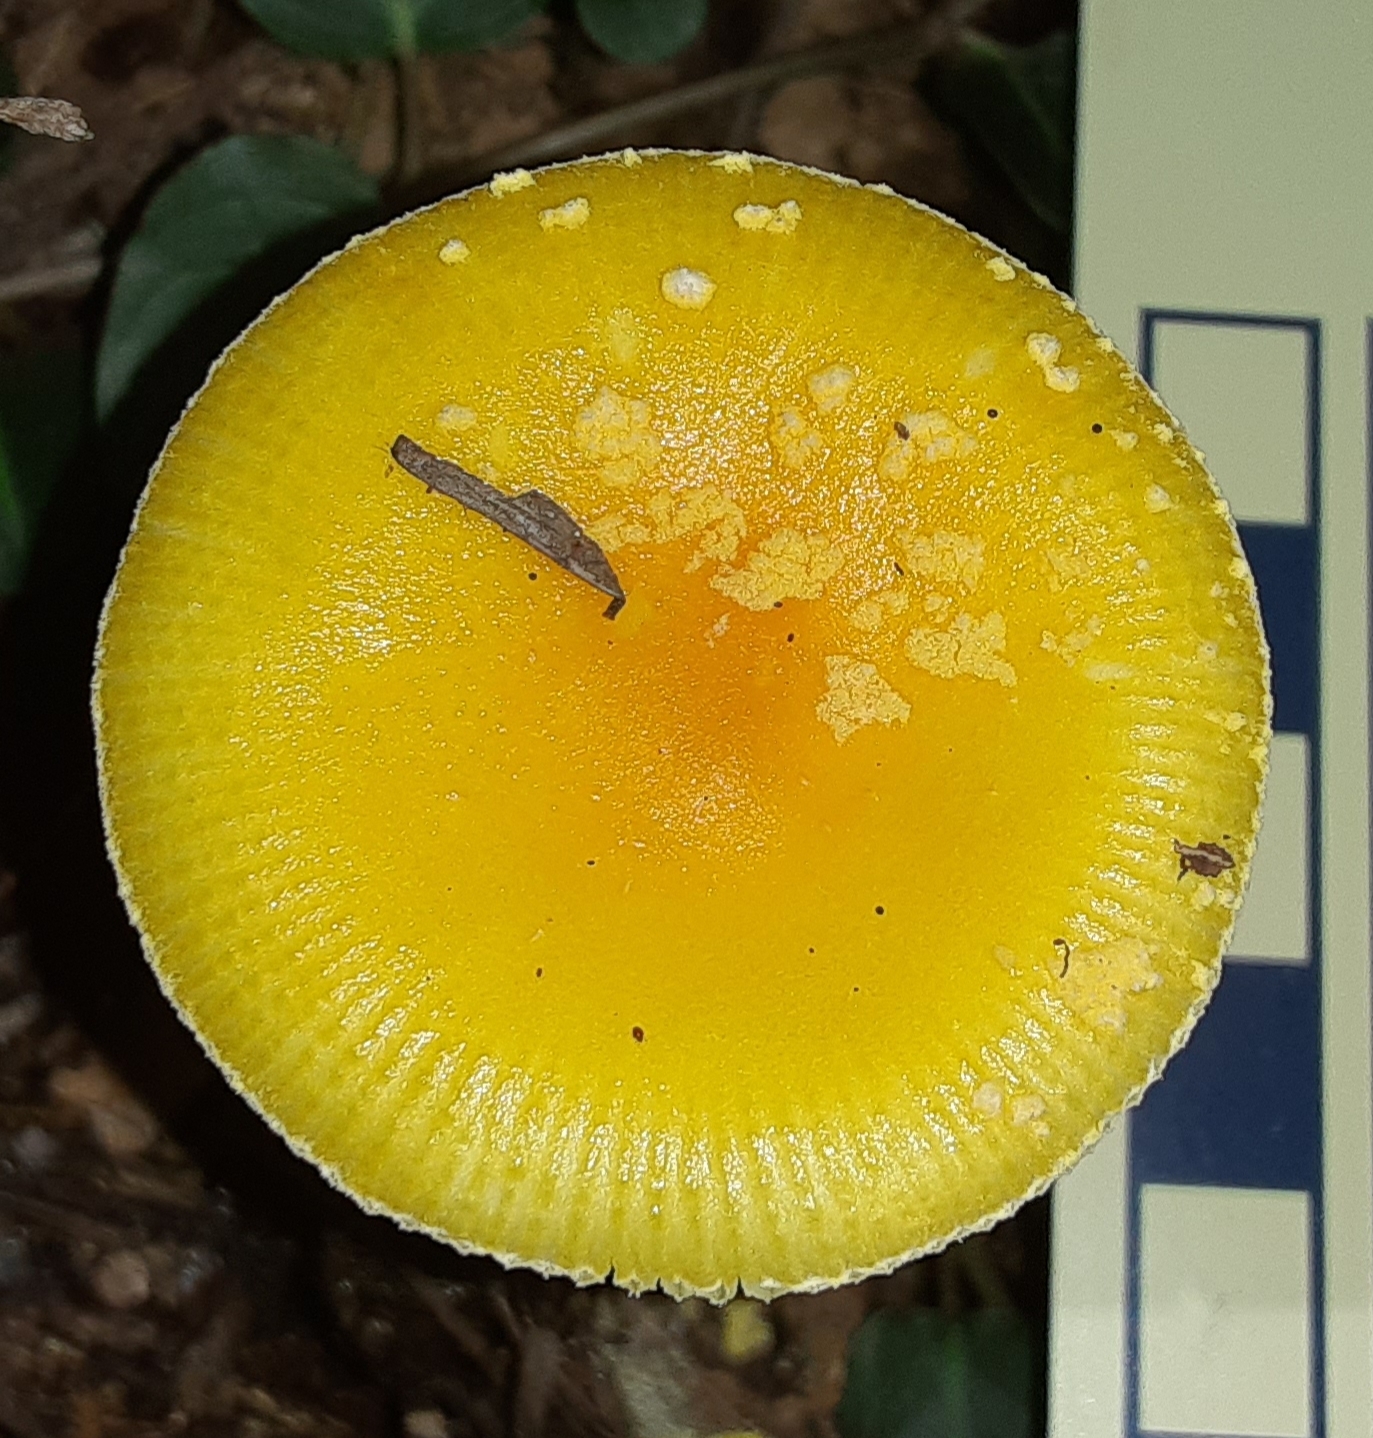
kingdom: Fungi
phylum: Basidiomycota
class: Agaricomycetes
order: Agaricales
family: Amanitaceae
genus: Amanita
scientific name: Amanita frostiana
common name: Frost's amanita
